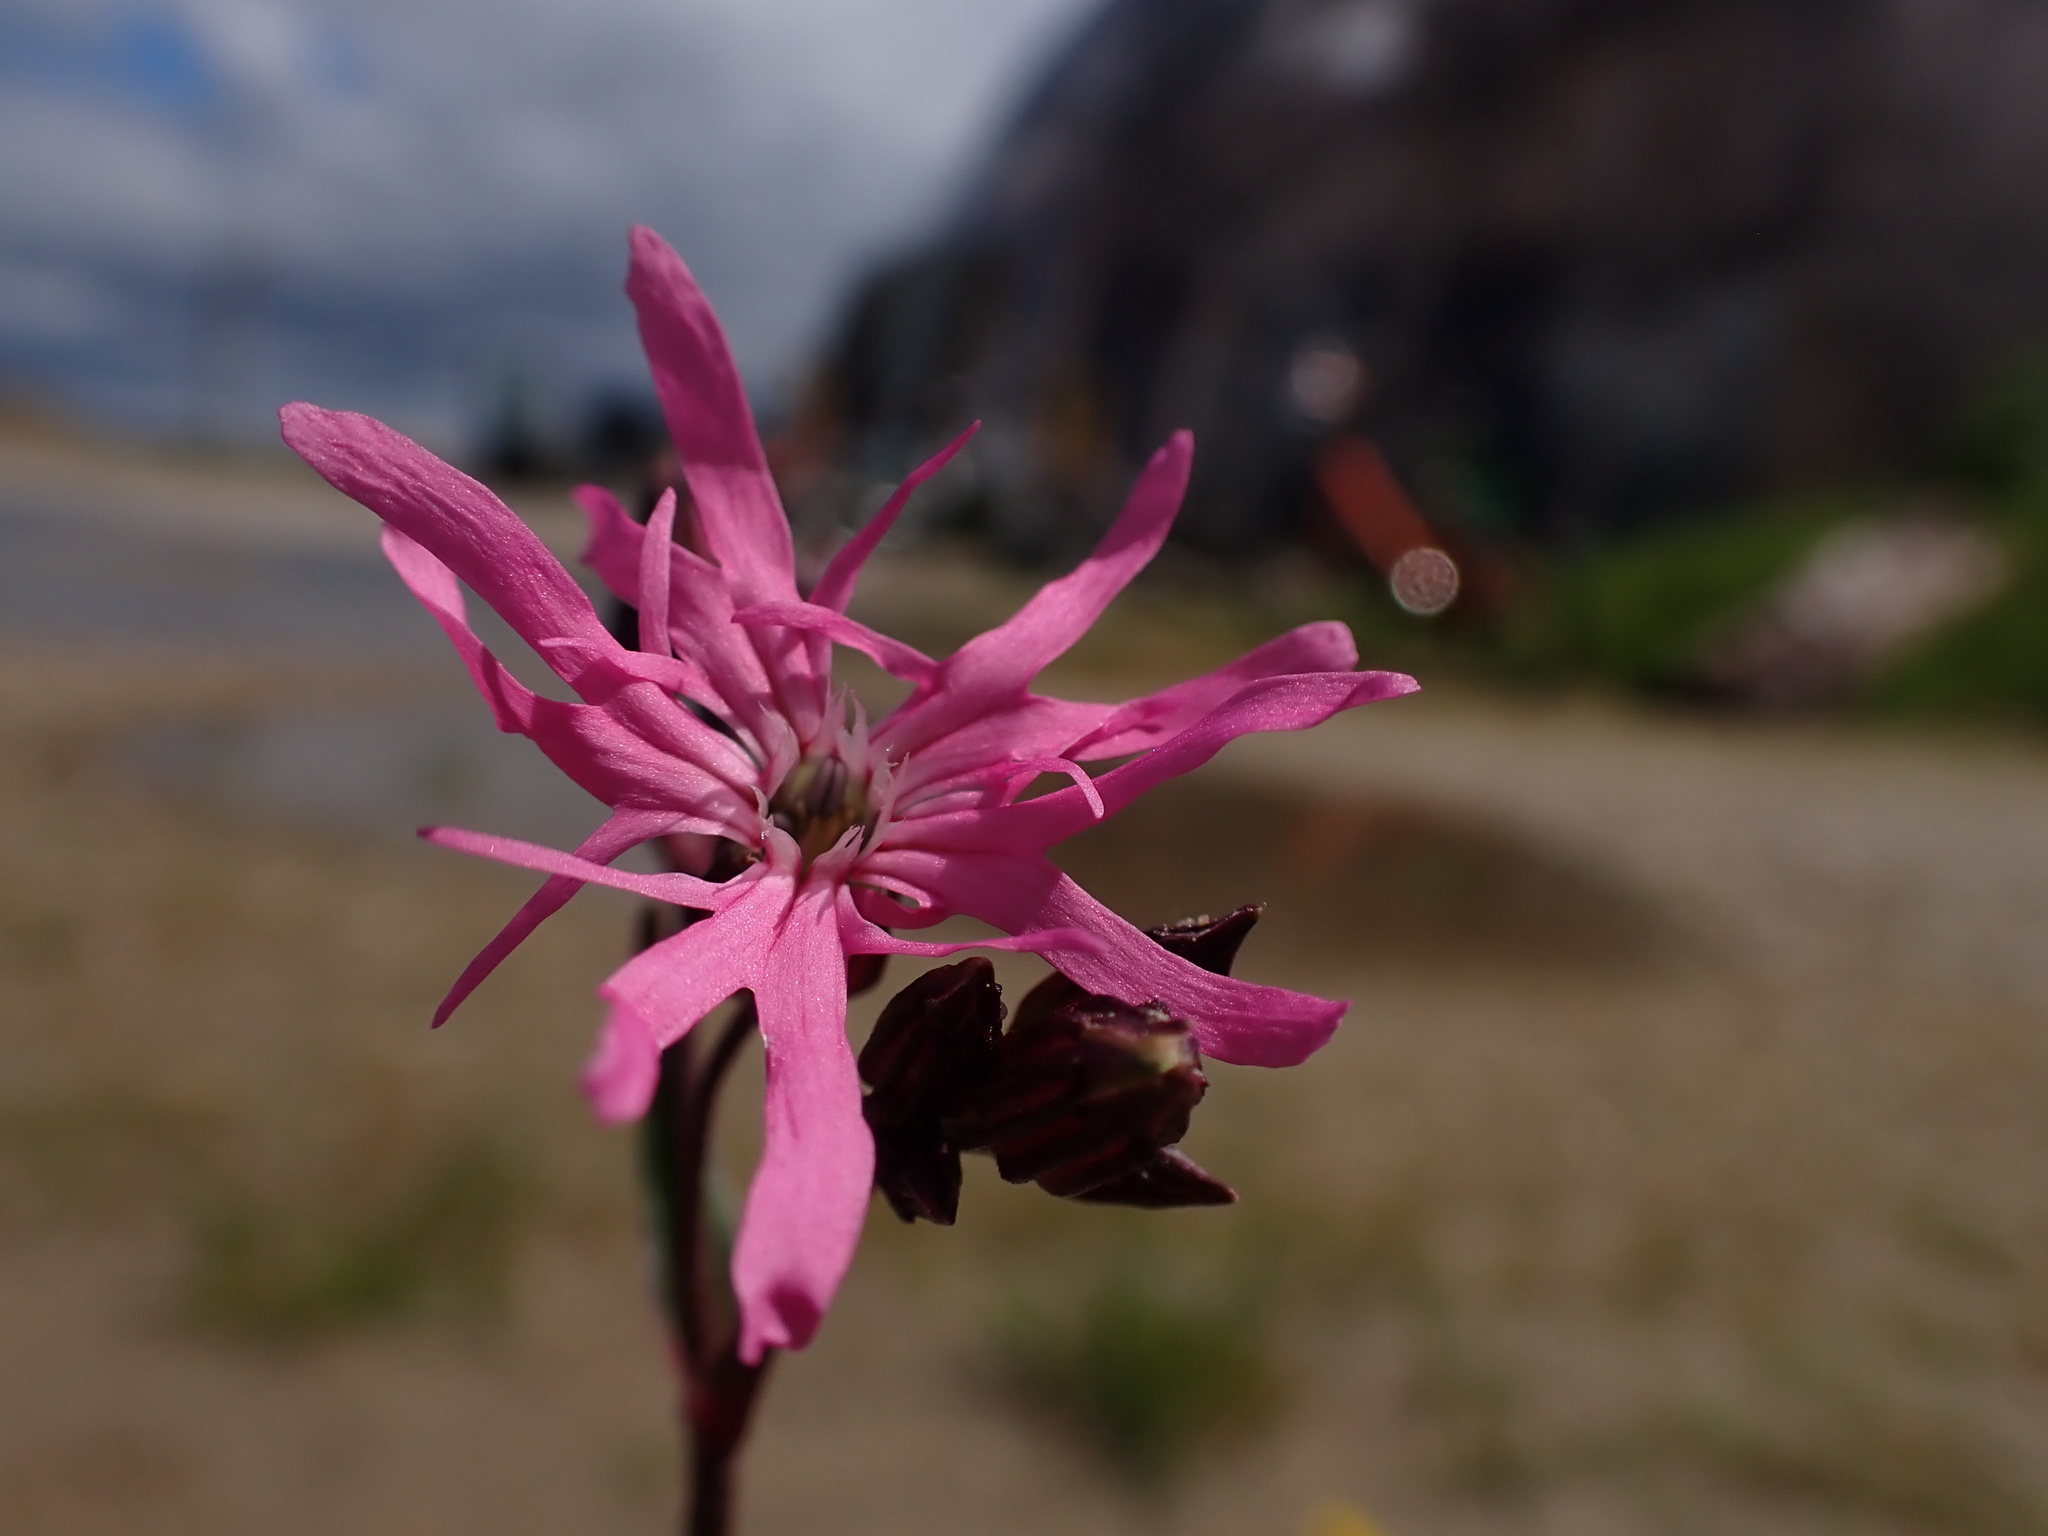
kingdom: Plantae
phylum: Tracheophyta
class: Magnoliopsida
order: Caryophyllales
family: Caryophyllaceae
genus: Silene
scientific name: Silene flos-cuculi
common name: Ragged-robin
